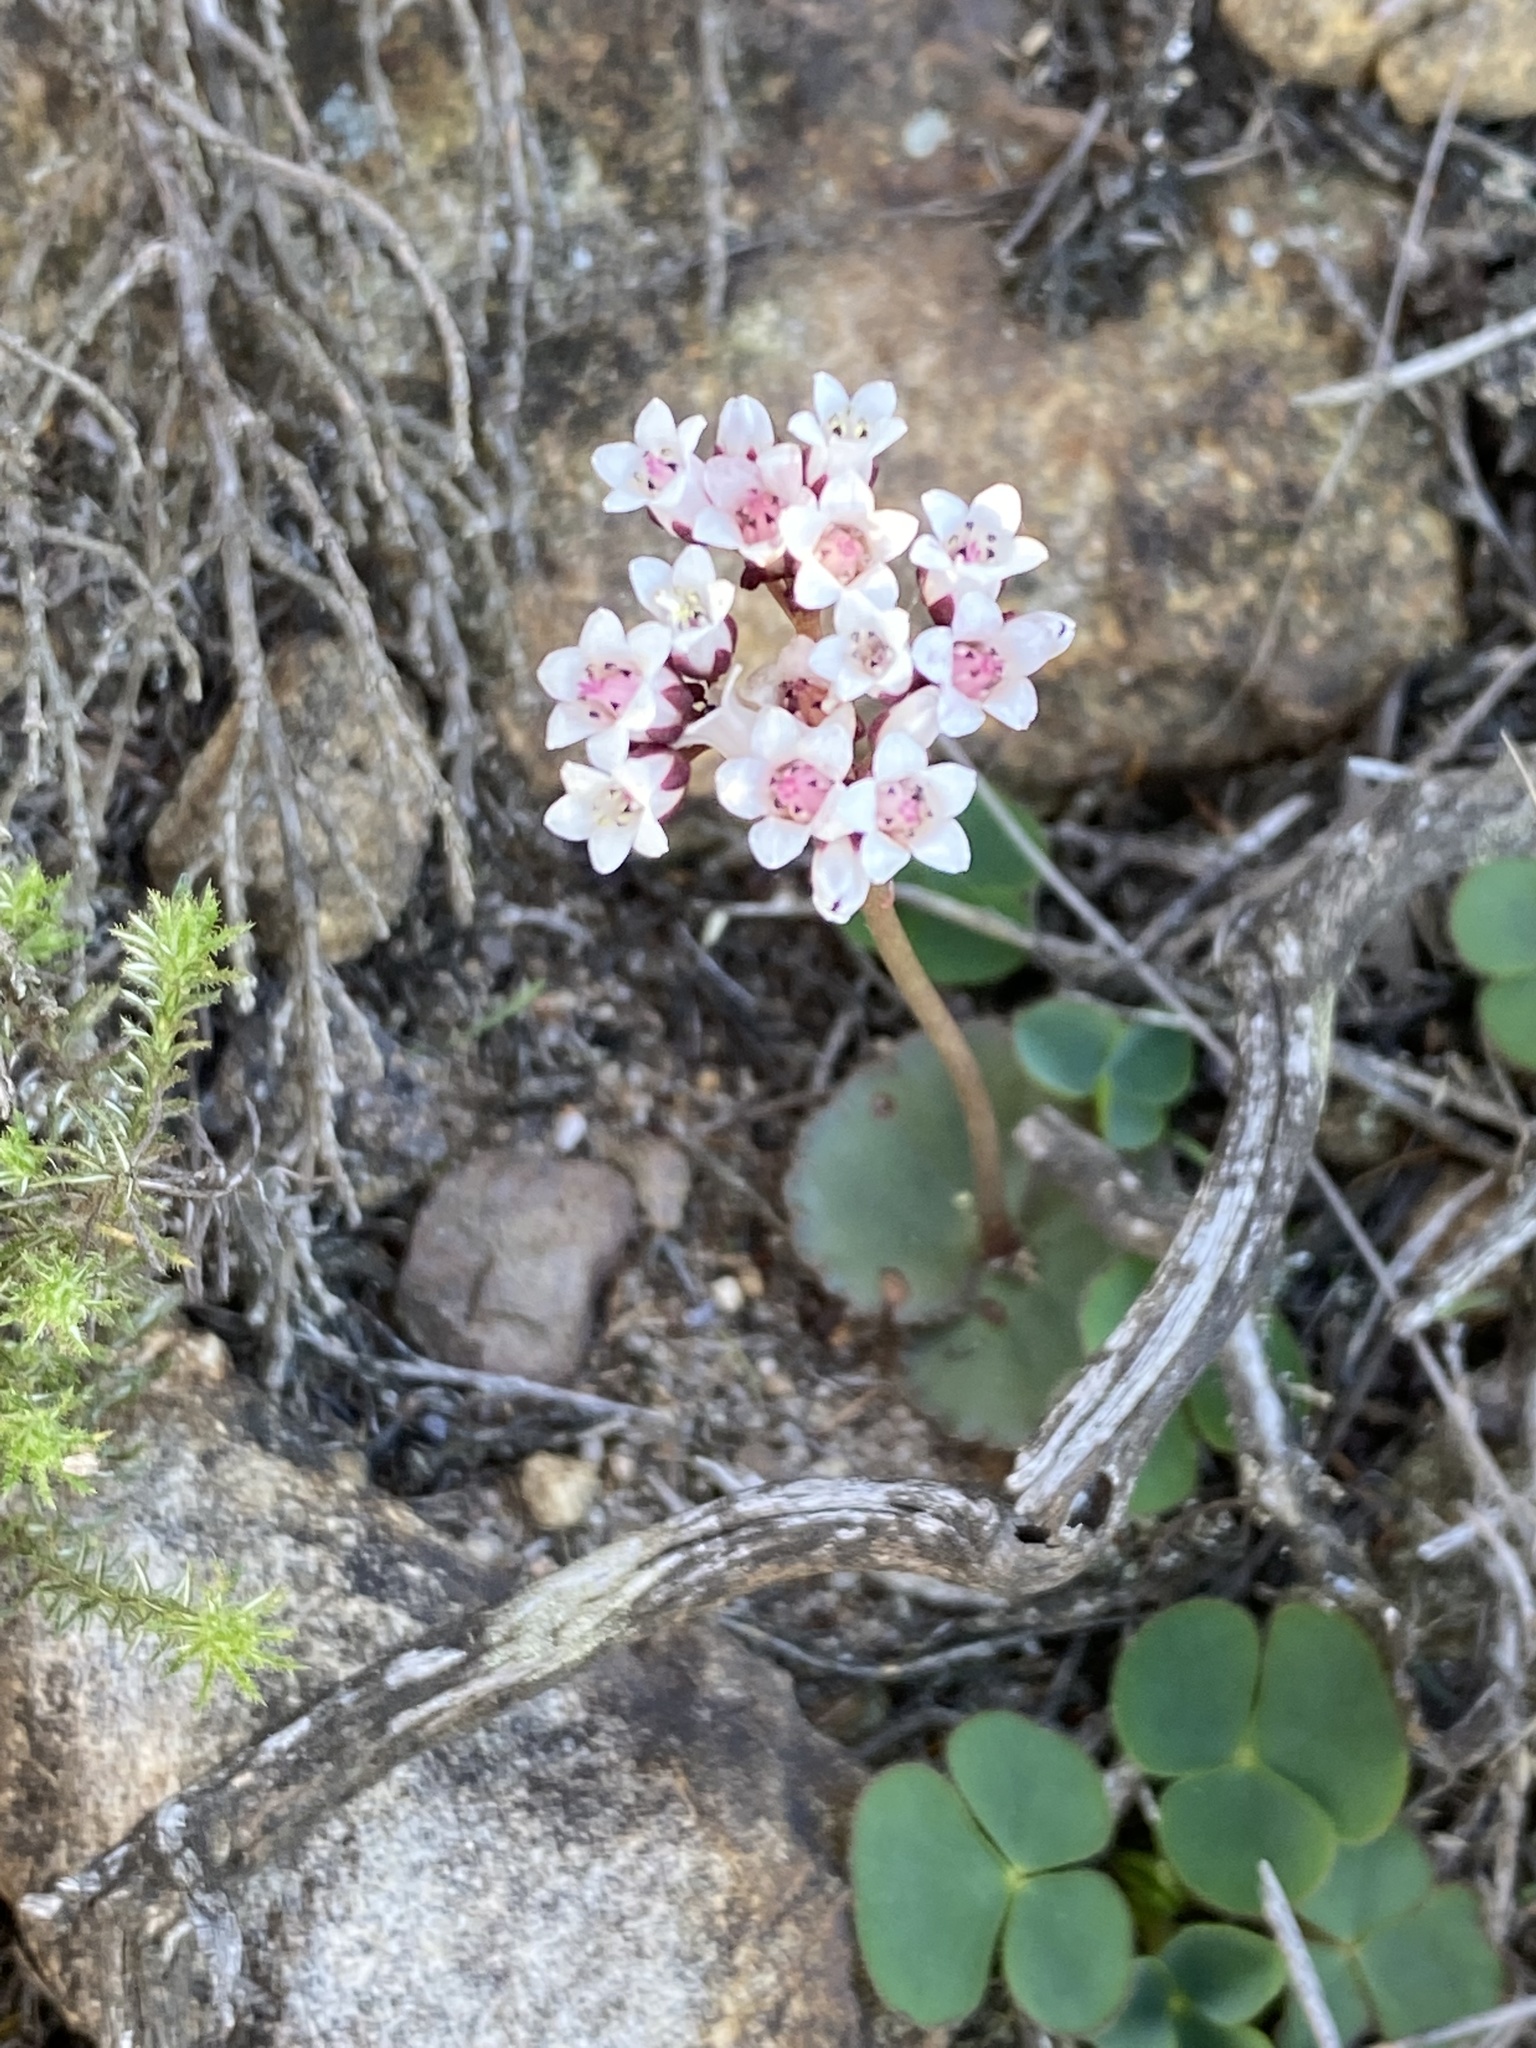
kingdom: Plantae
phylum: Tracheophyta
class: Magnoliopsida
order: Saxifragales
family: Crassulaceae
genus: Crassula
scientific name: Crassula saxifraga
